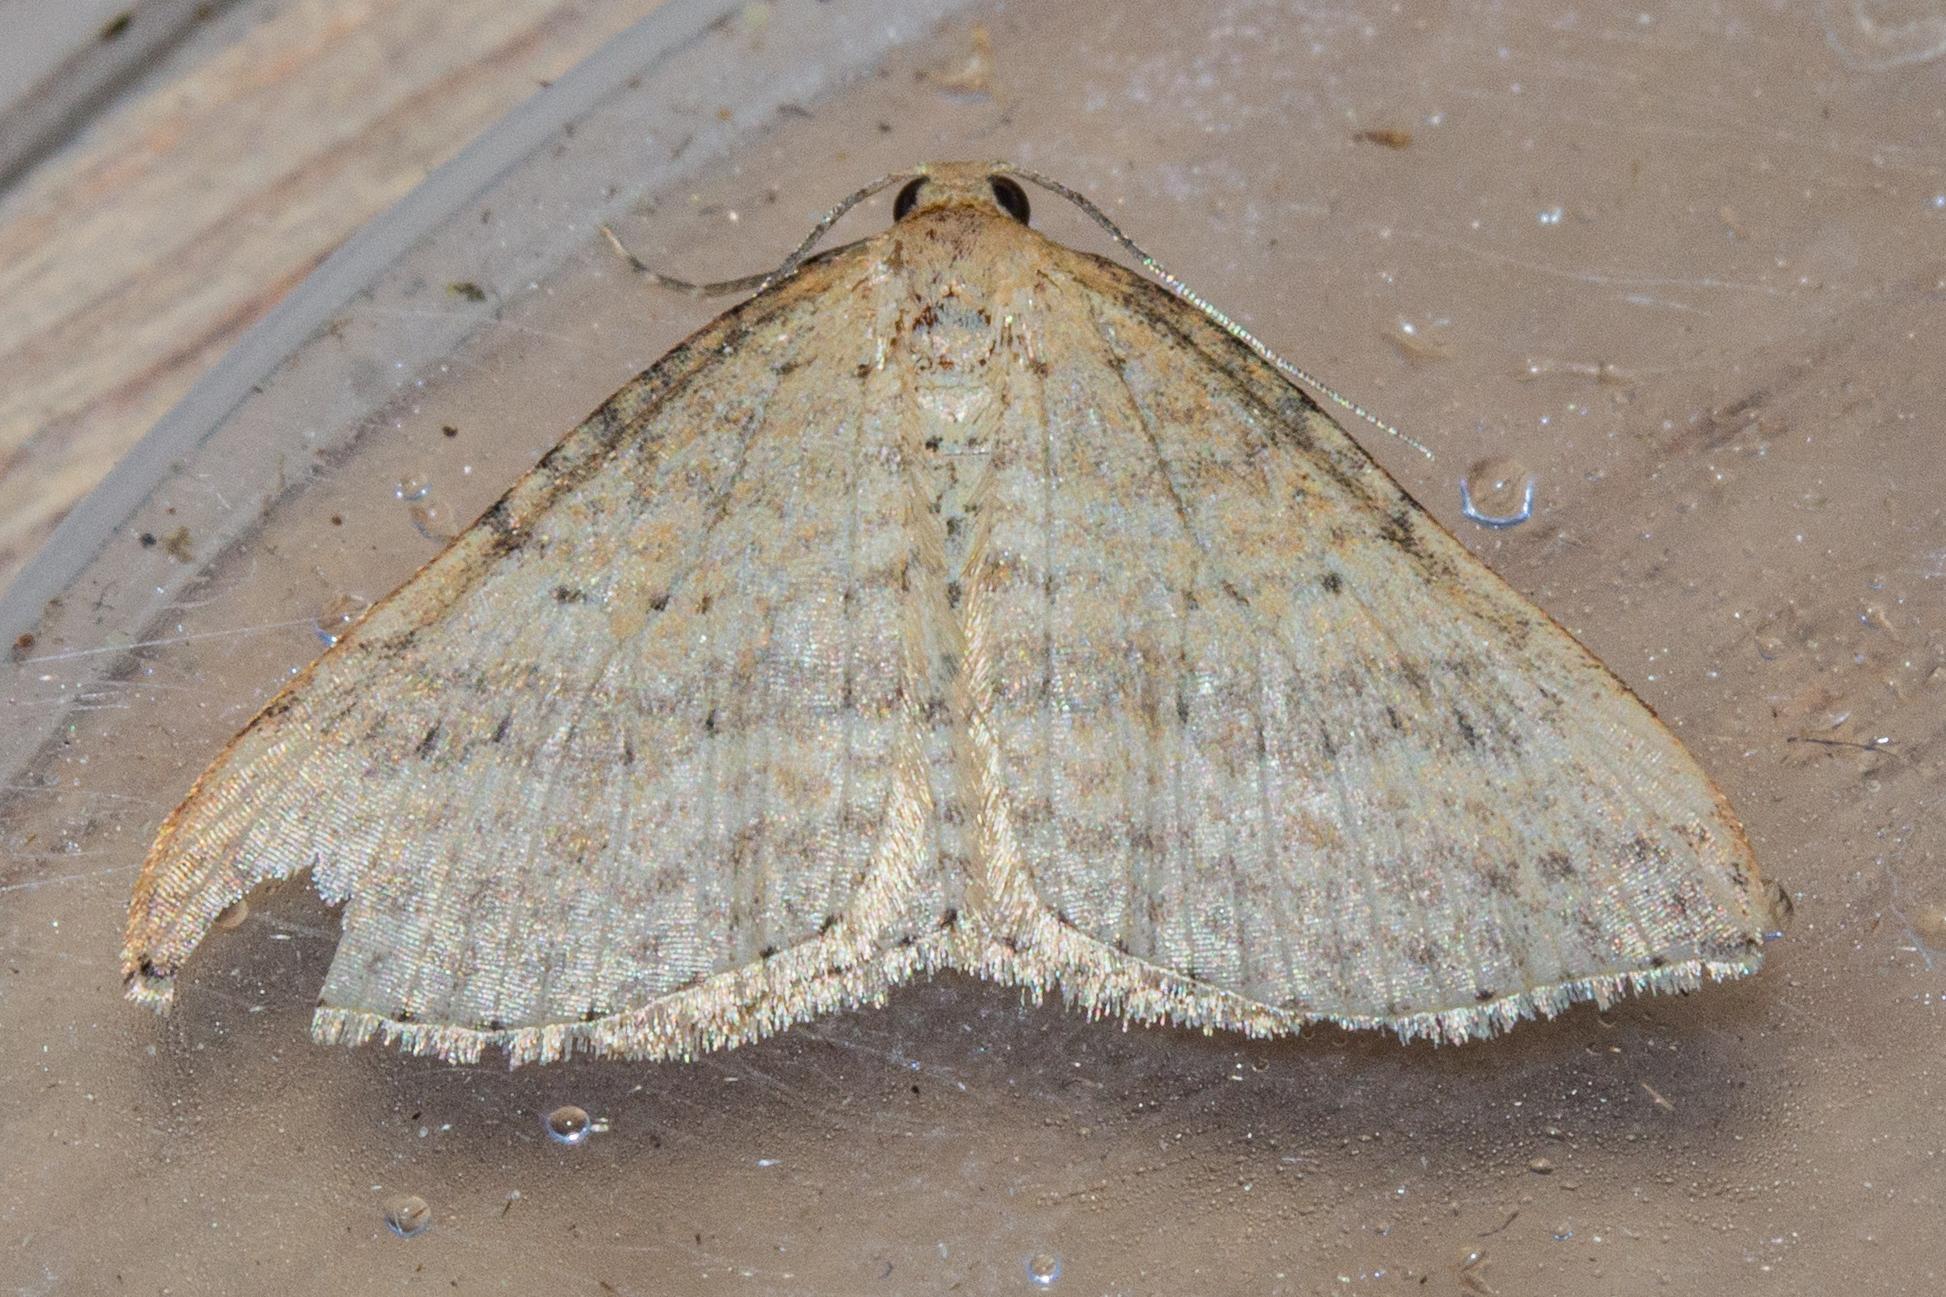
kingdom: Animalia
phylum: Arthropoda
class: Insecta
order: Lepidoptera
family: Geometridae
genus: Epicyme
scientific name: Epicyme rubropunctaria
